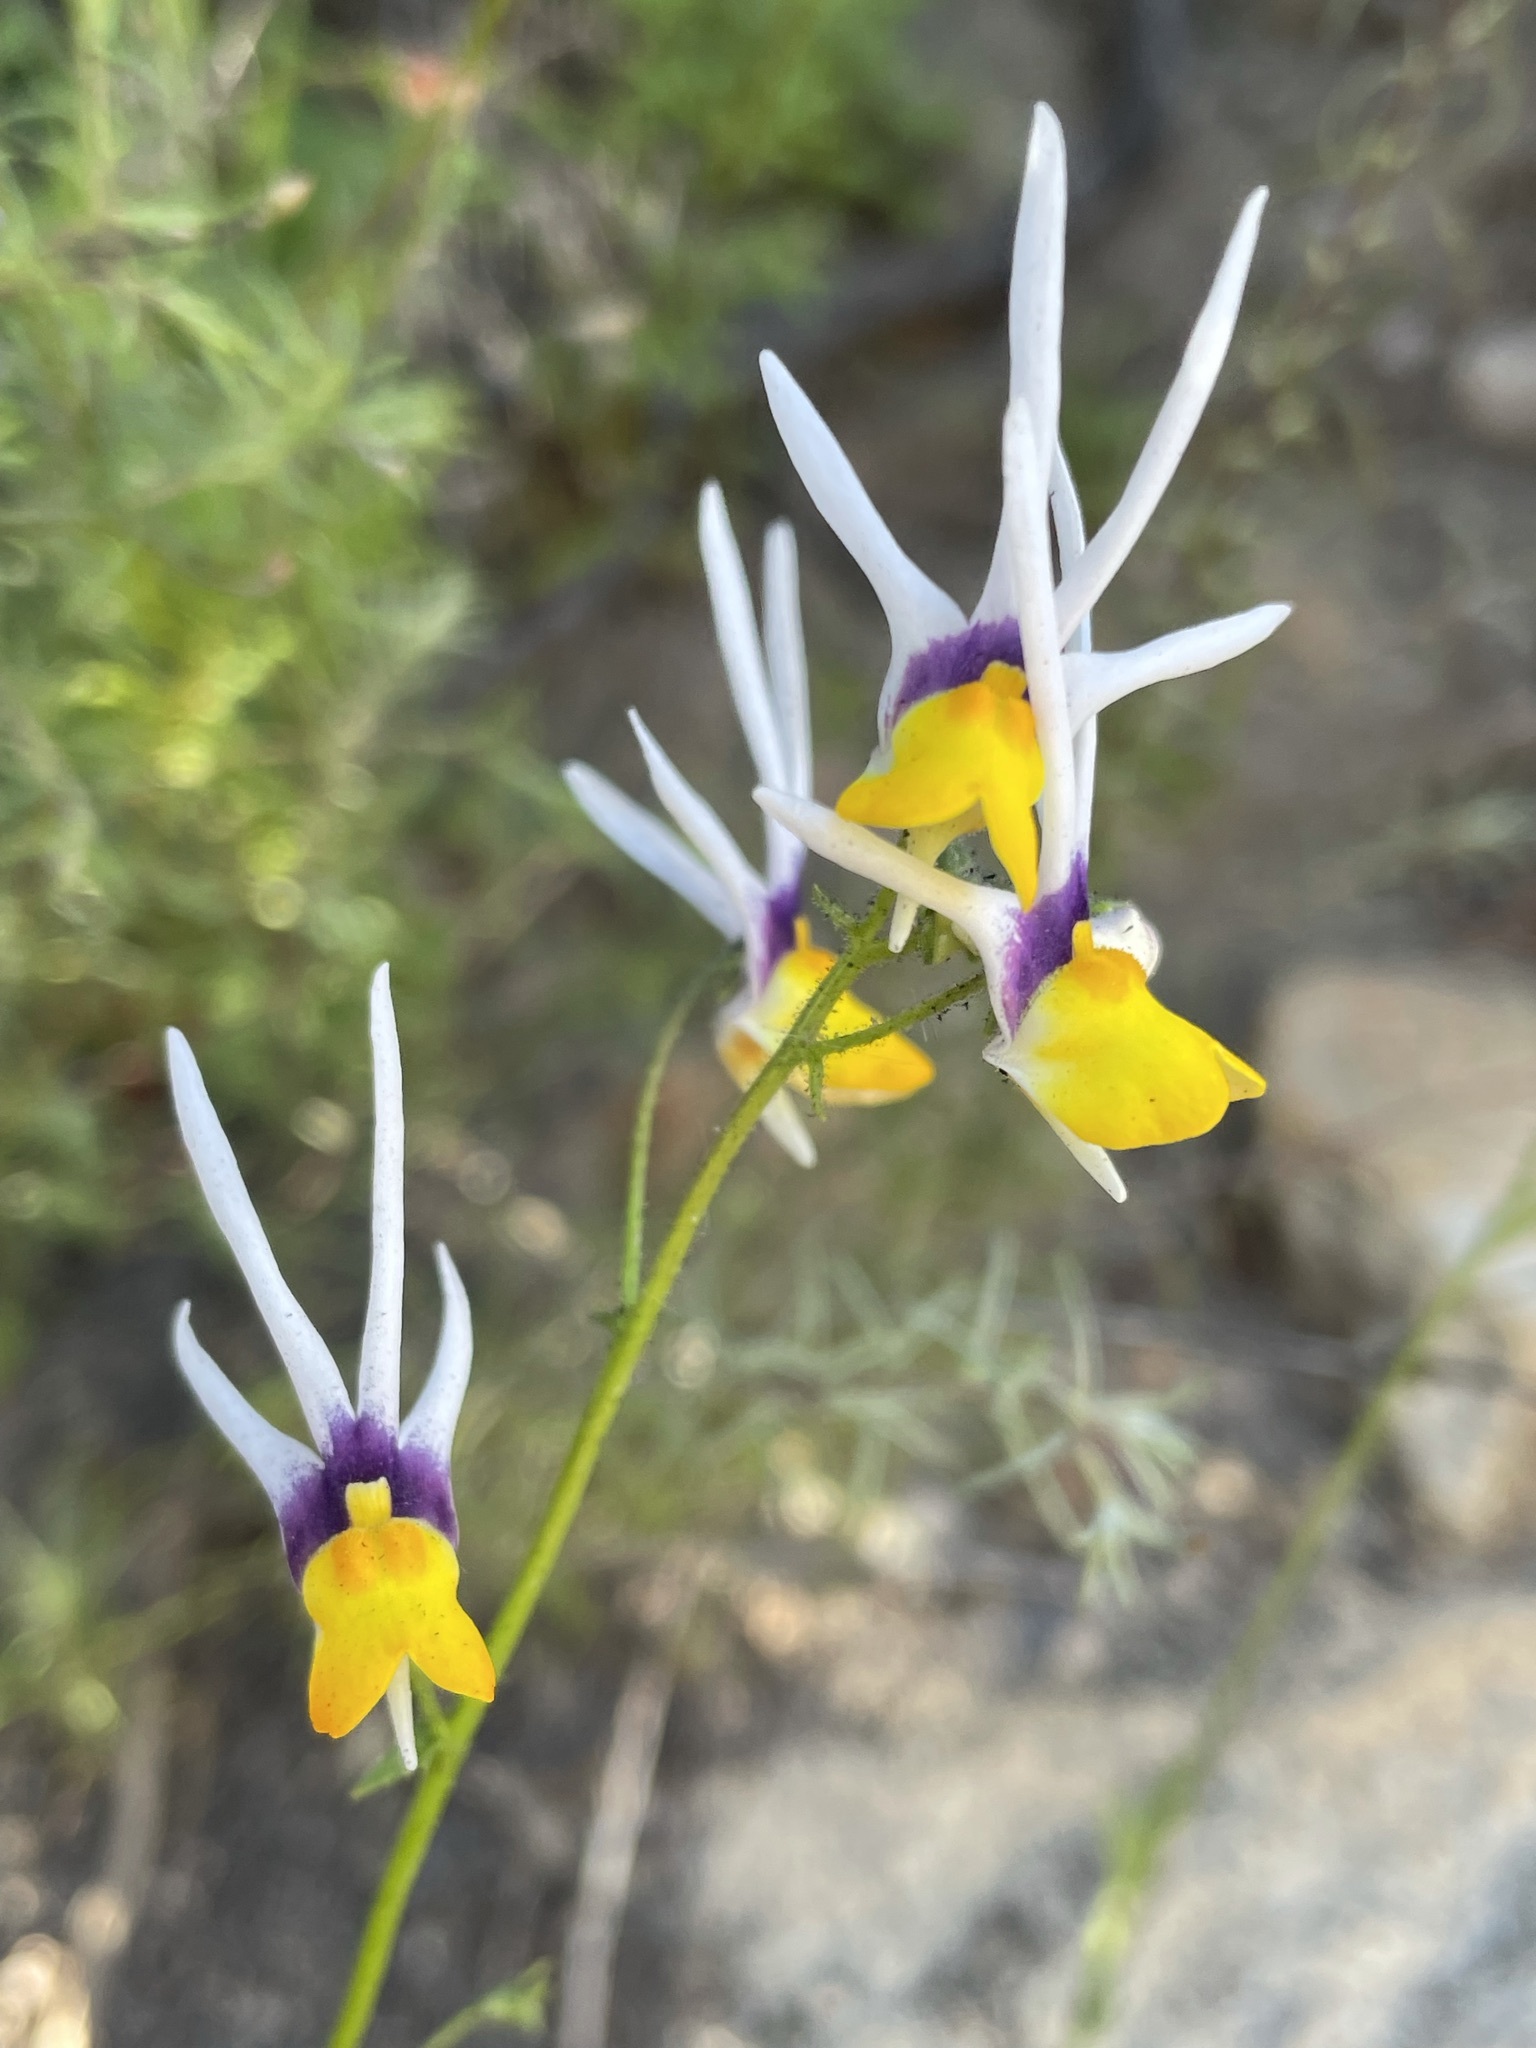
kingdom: Plantae
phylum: Tracheophyta
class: Magnoliopsida
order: Lamiales
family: Scrophulariaceae
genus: Nemesia
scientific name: Nemesia cheiranthus
